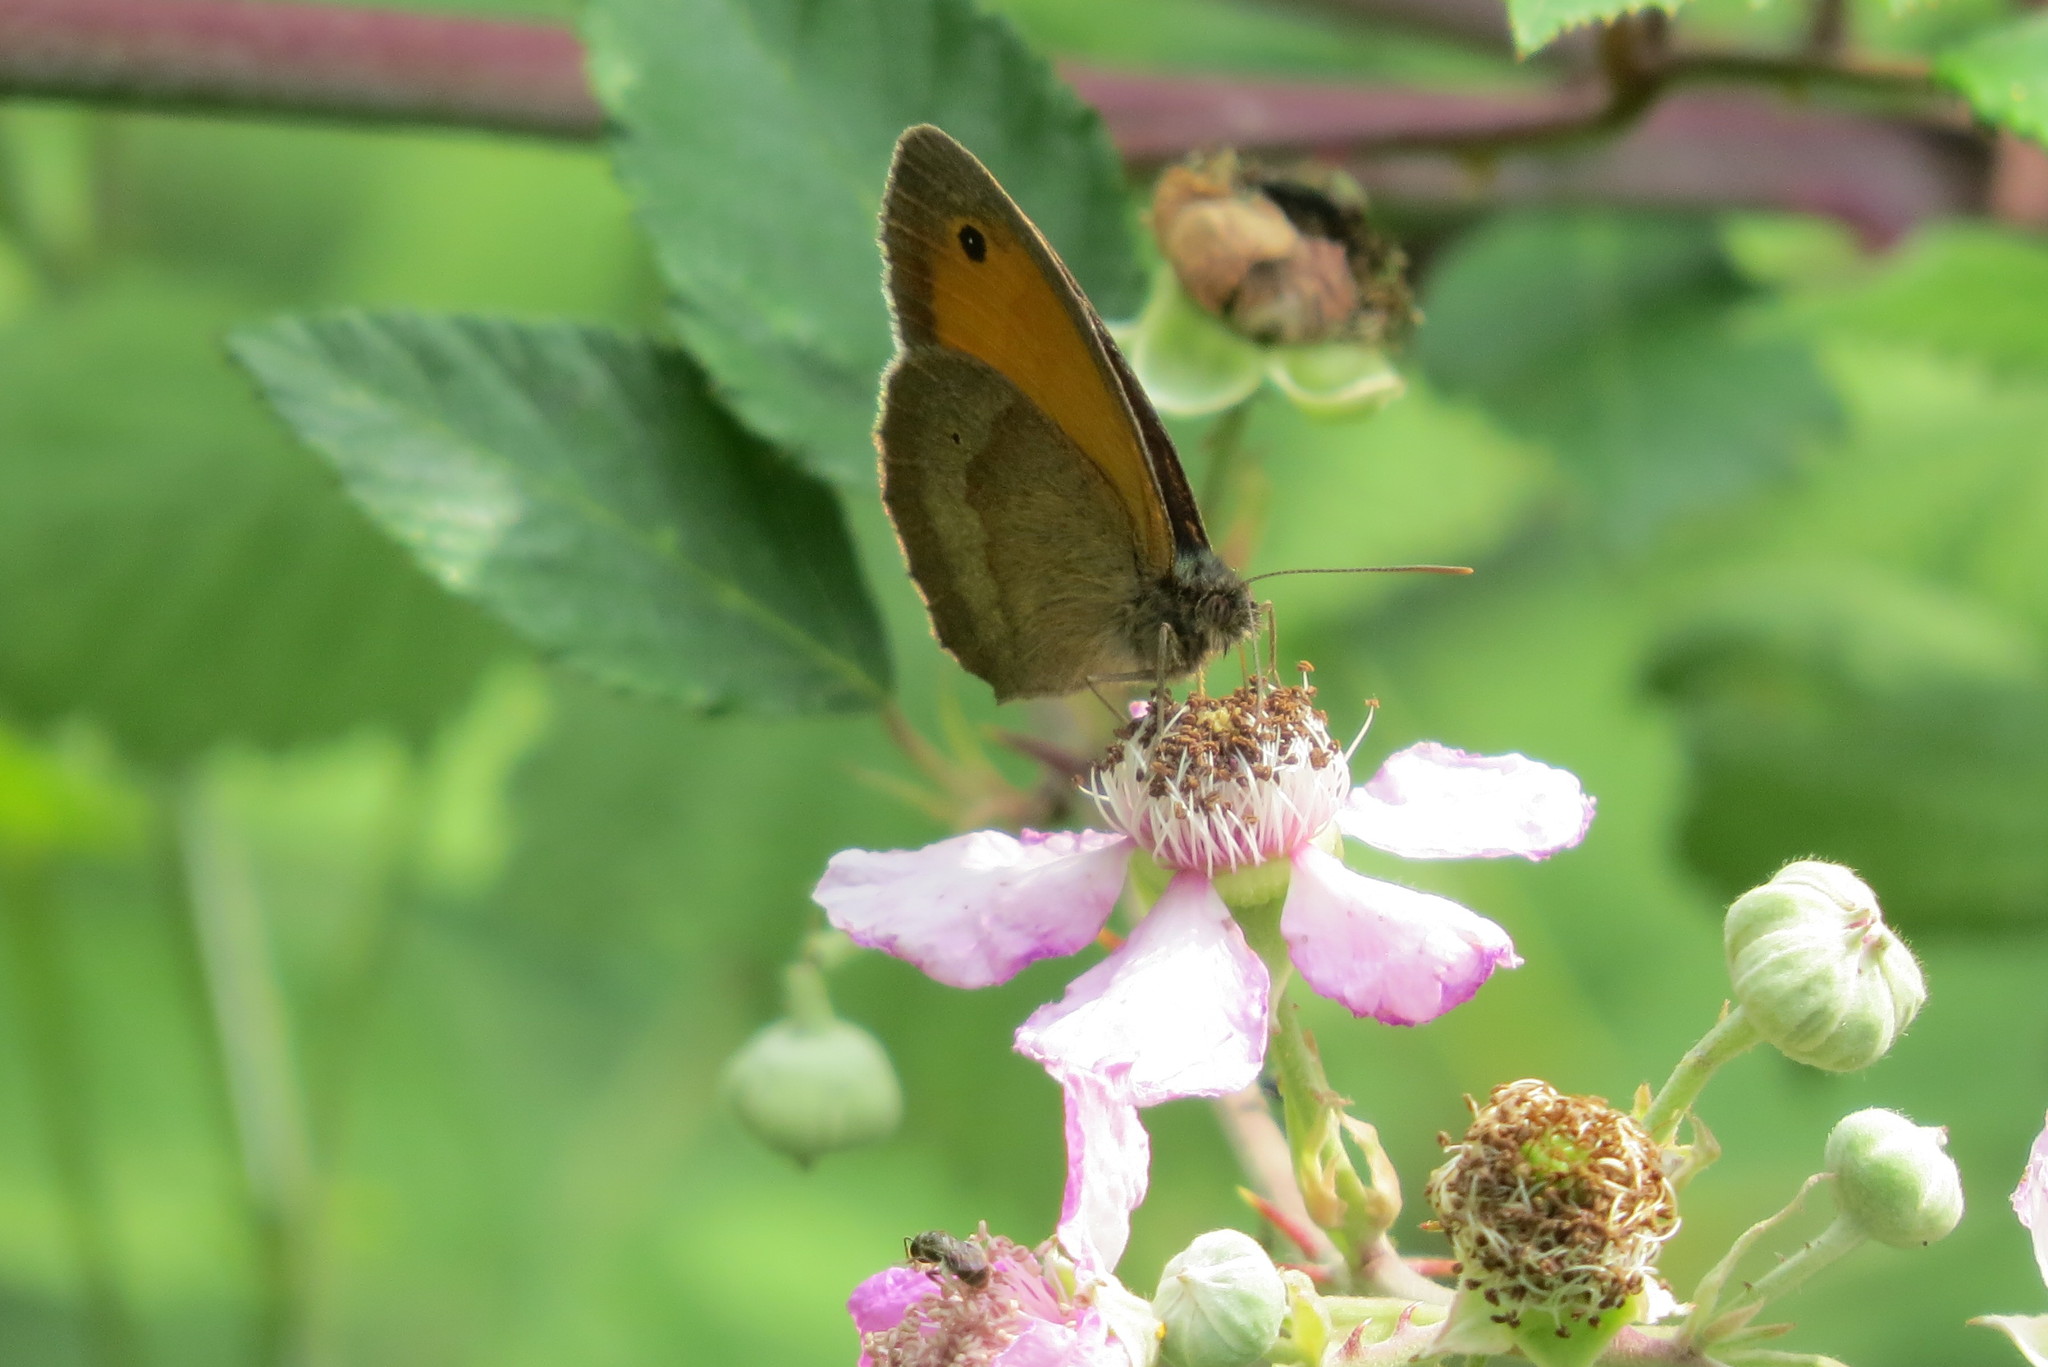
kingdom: Animalia
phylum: Arthropoda
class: Insecta
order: Lepidoptera
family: Nymphalidae
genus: Maniola
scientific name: Maniola jurtina
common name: Meadow brown
